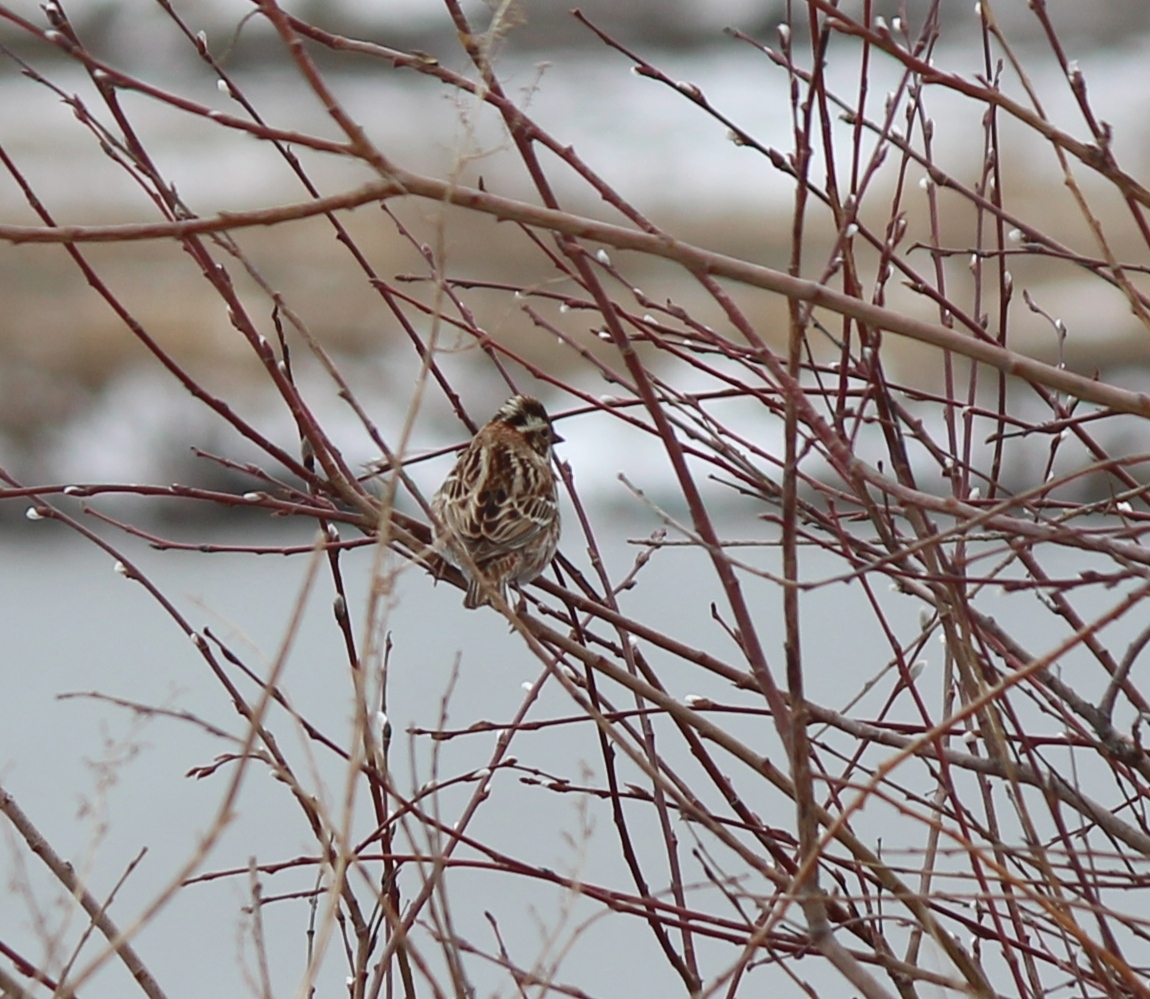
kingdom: Animalia
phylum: Chordata
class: Aves
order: Passeriformes
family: Emberizidae
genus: Emberiza
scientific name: Emberiza rustica
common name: Rustic bunting
